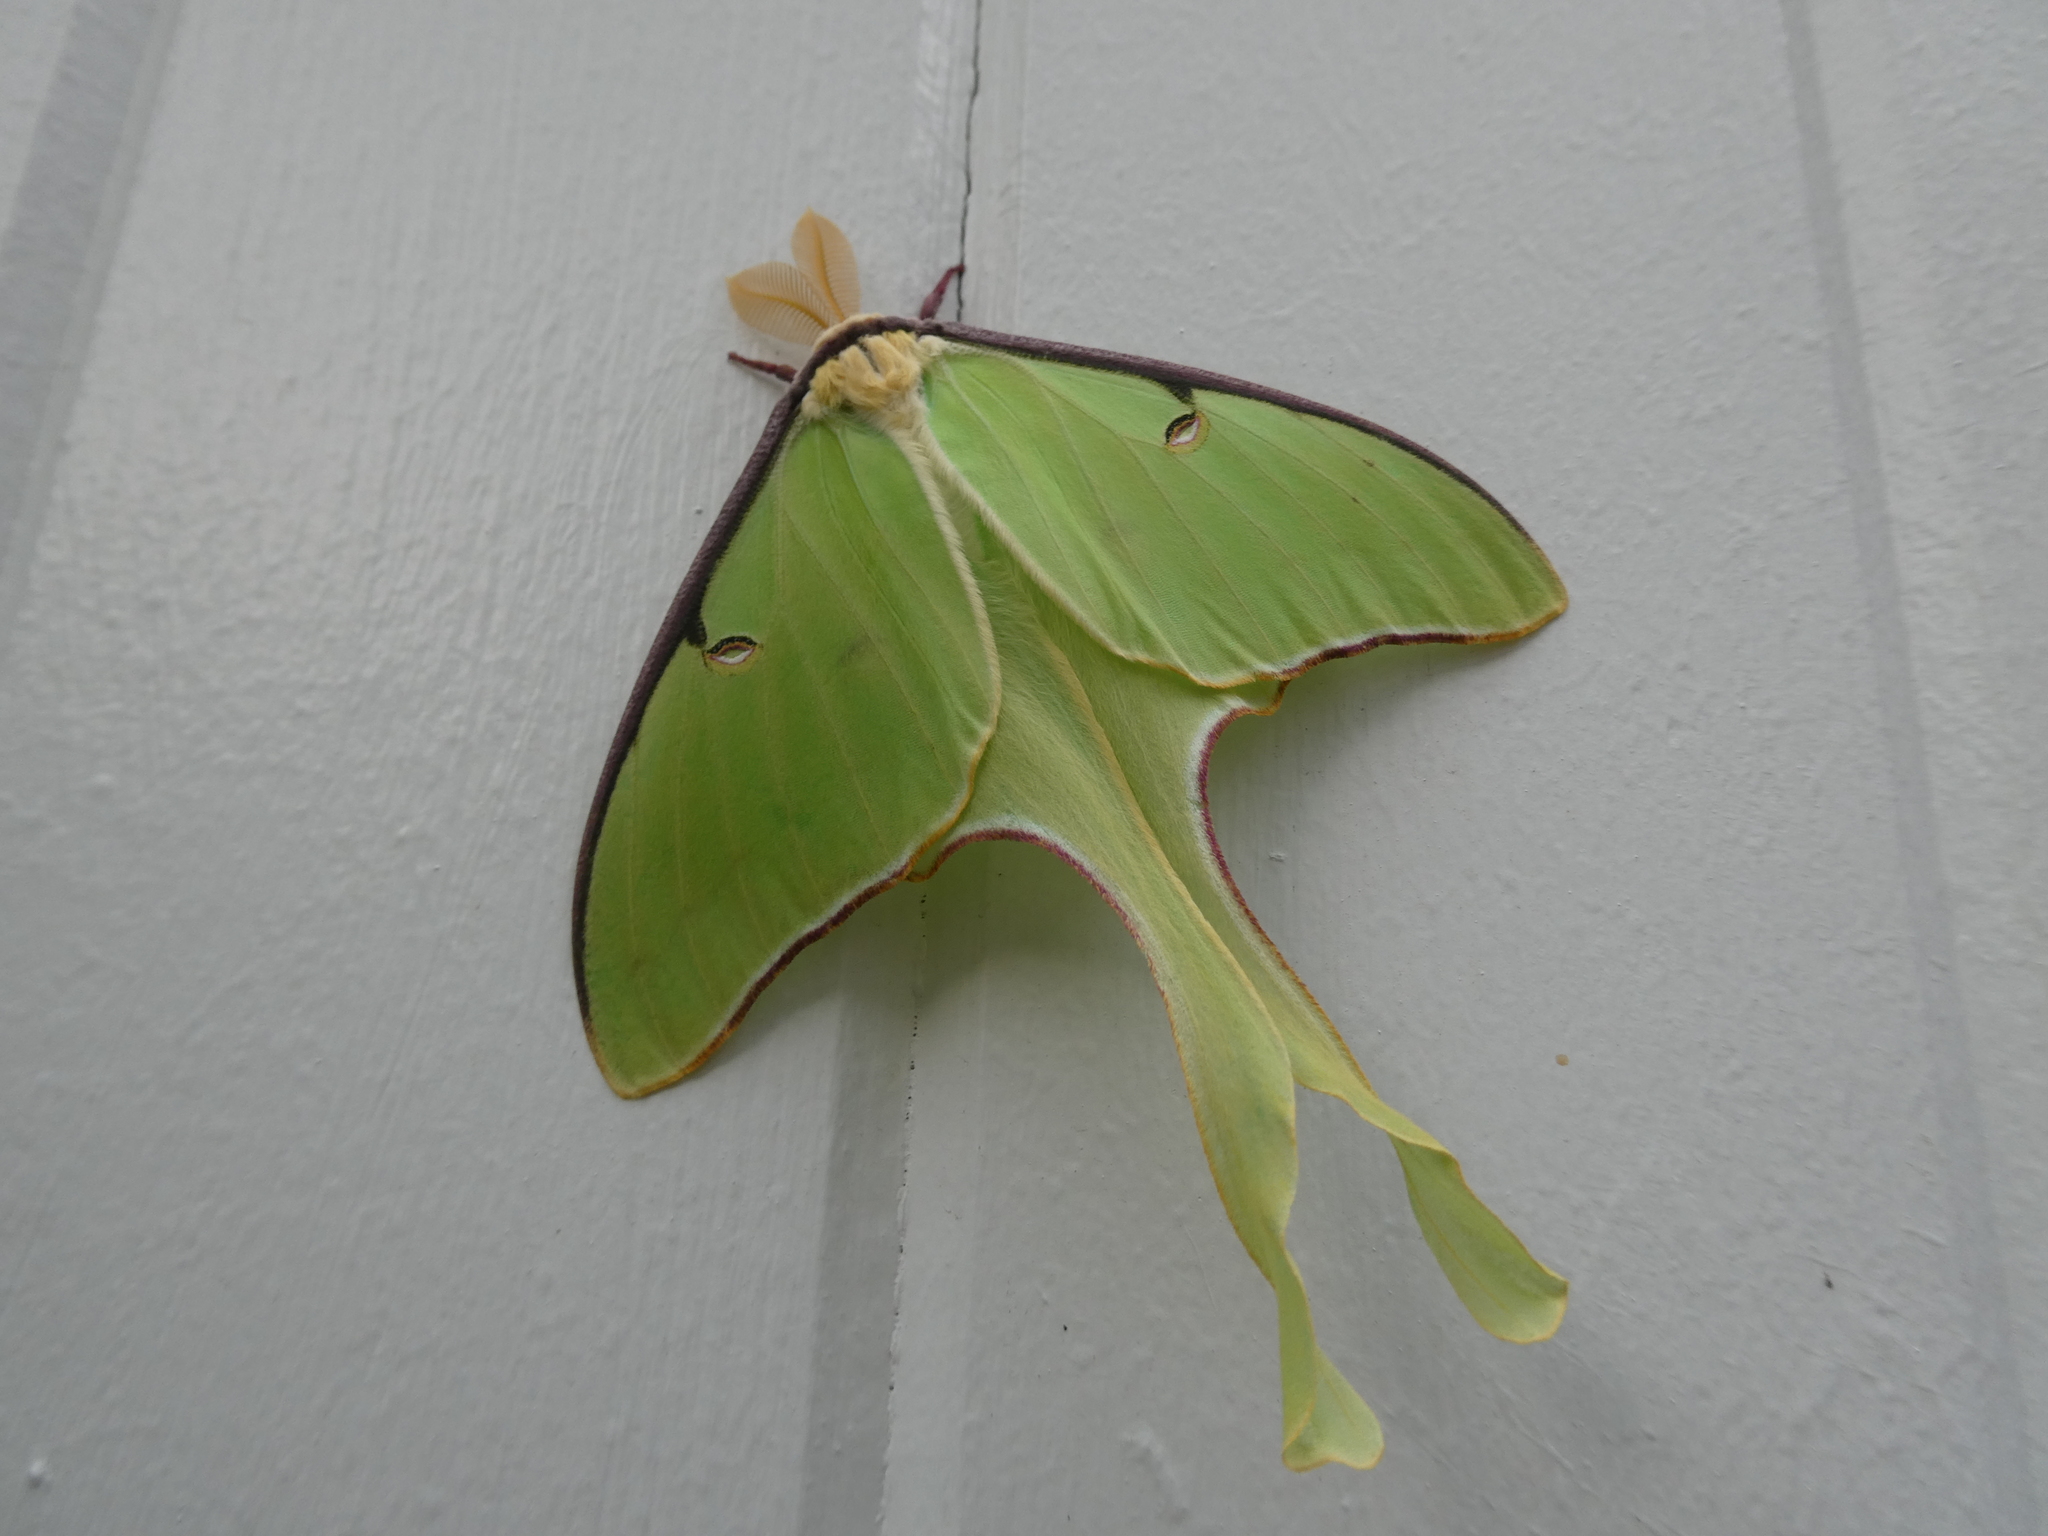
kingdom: Animalia
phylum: Arthropoda
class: Insecta
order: Lepidoptera
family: Saturniidae
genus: Actias
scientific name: Actias luna
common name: Luna moth
